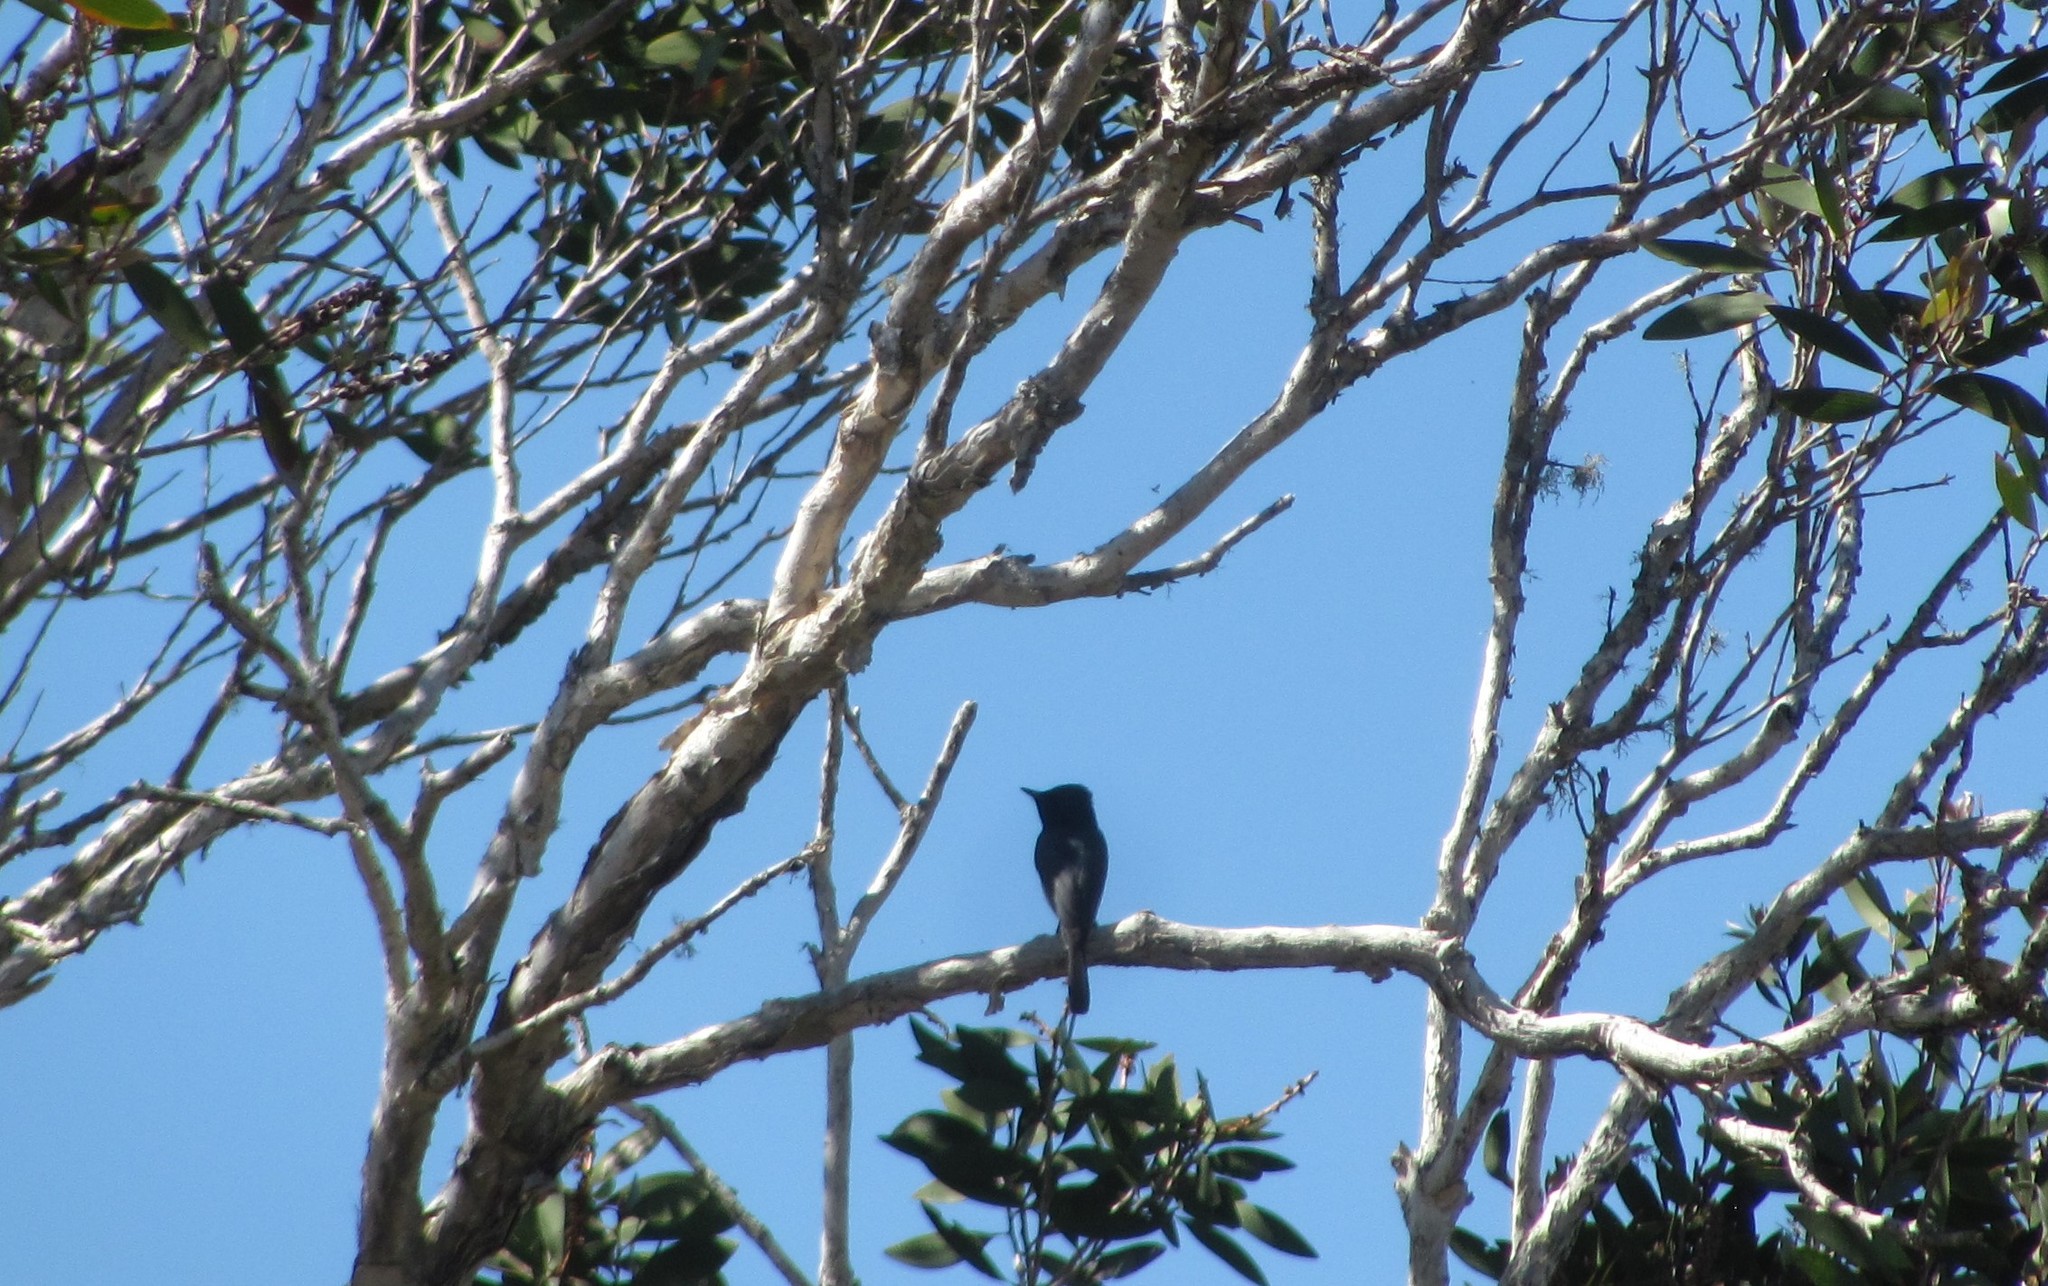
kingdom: Animalia
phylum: Chordata
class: Aves
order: Passeriformes
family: Monarchidae
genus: Myiagra
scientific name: Myiagra cyanoleuca
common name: Satin flycatcher
